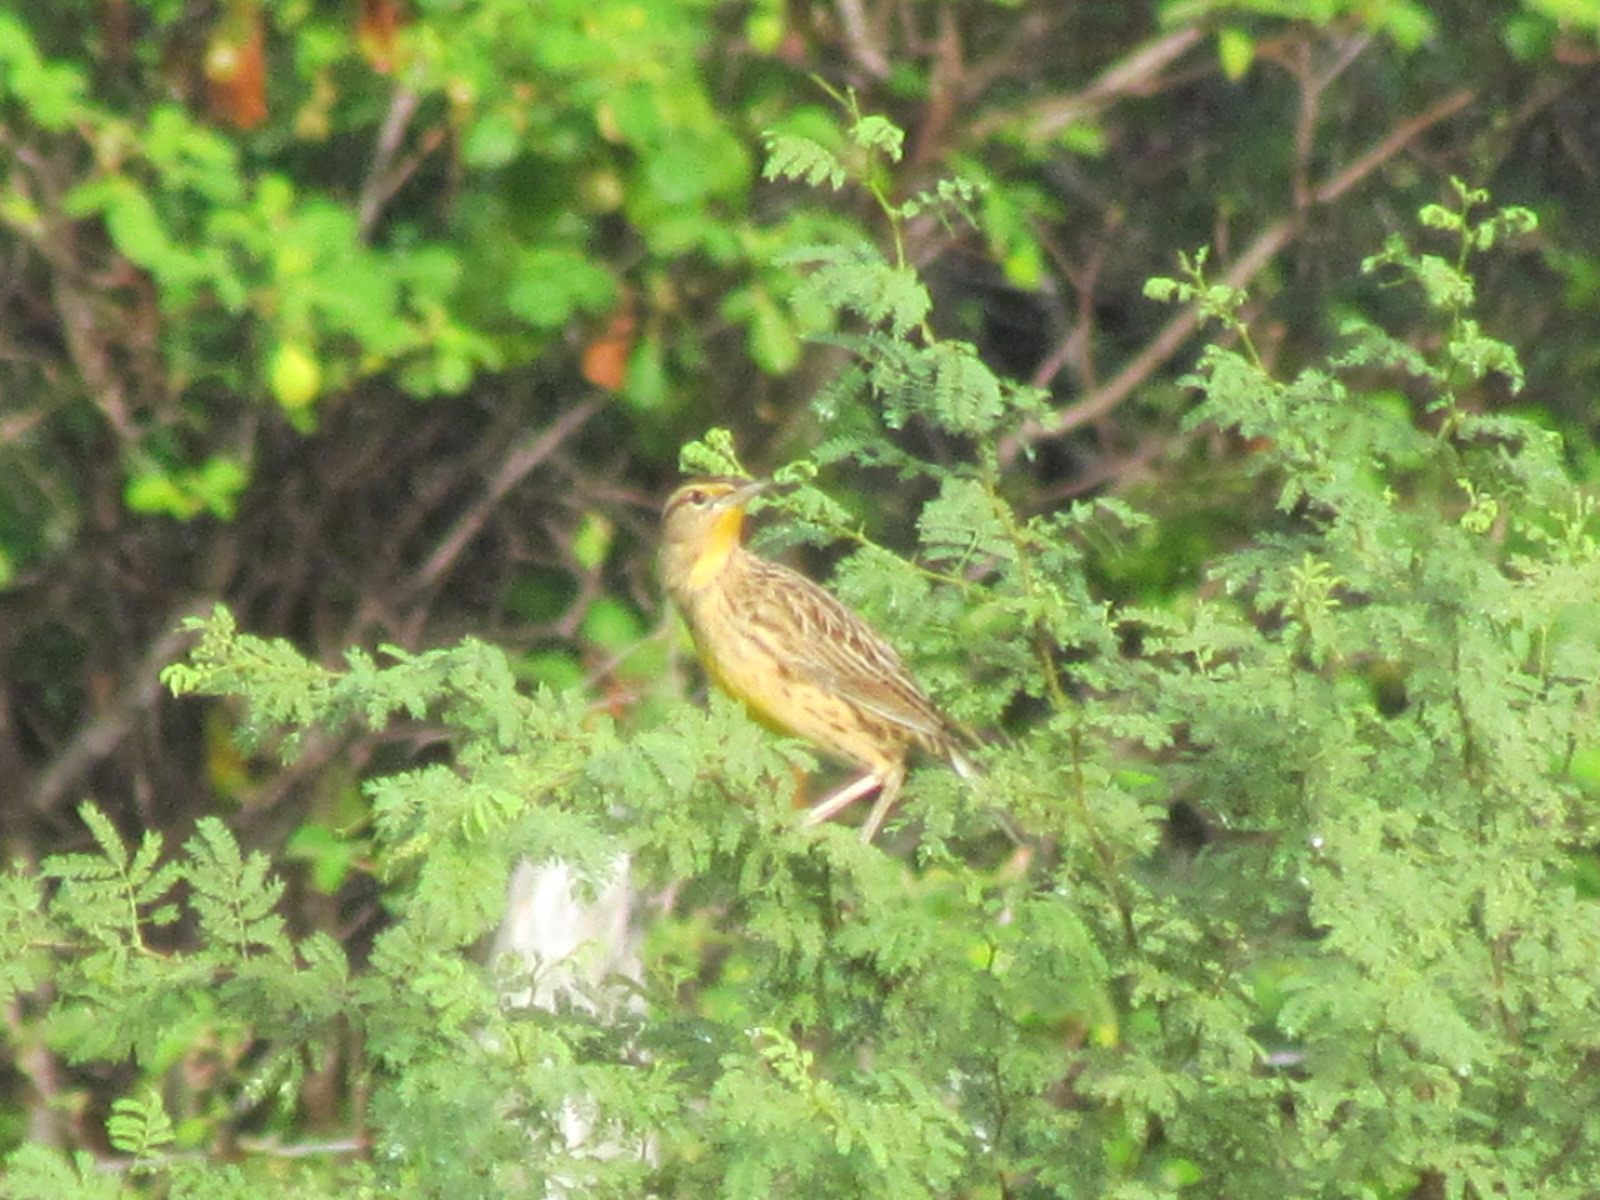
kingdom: Animalia
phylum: Chordata
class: Aves
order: Passeriformes
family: Icteridae
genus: Sturnella
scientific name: Sturnella magna
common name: Eastern meadowlark
